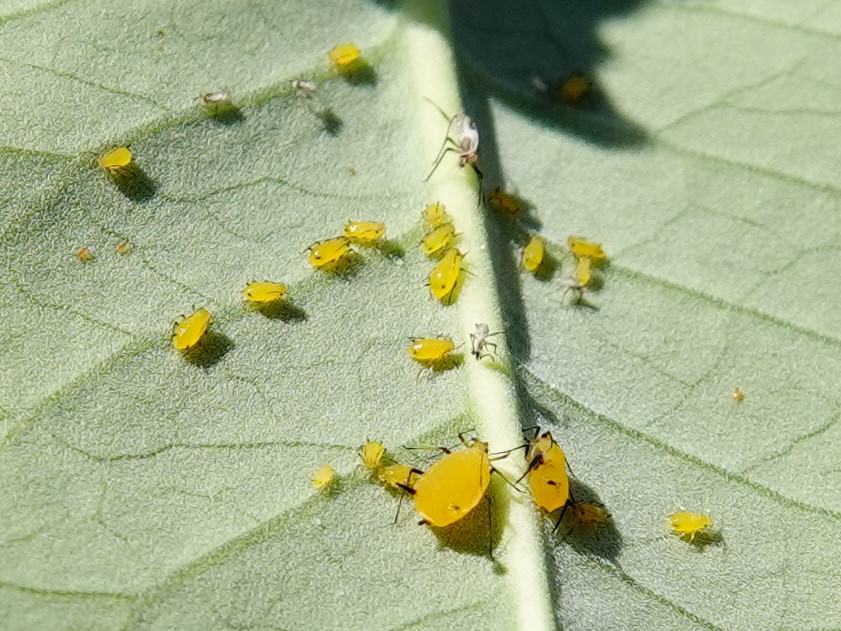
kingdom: Animalia
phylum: Arthropoda
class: Insecta
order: Hemiptera
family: Aphididae
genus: Aphis
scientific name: Aphis nerii
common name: Oleander aphid
